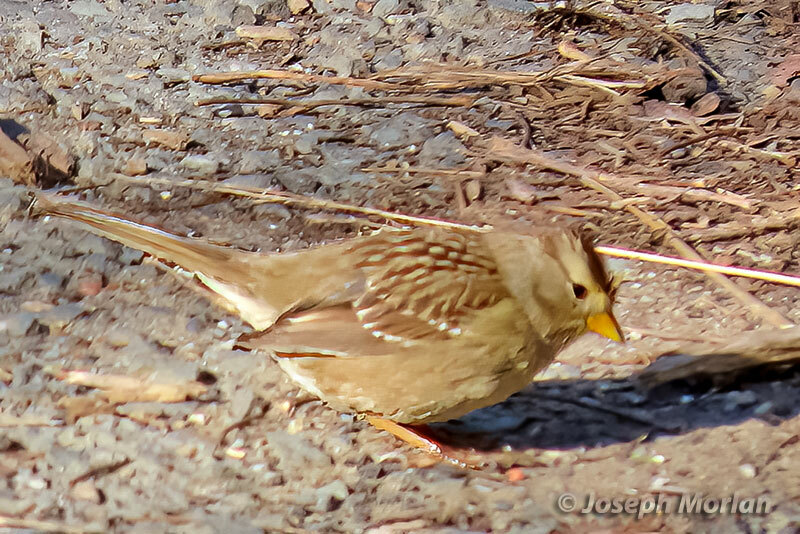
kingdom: Animalia
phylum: Chordata
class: Aves
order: Passeriformes
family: Passerellidae
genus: Zonotrichia
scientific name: Zonotrichia leucophrys
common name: White-crowned sparrow
